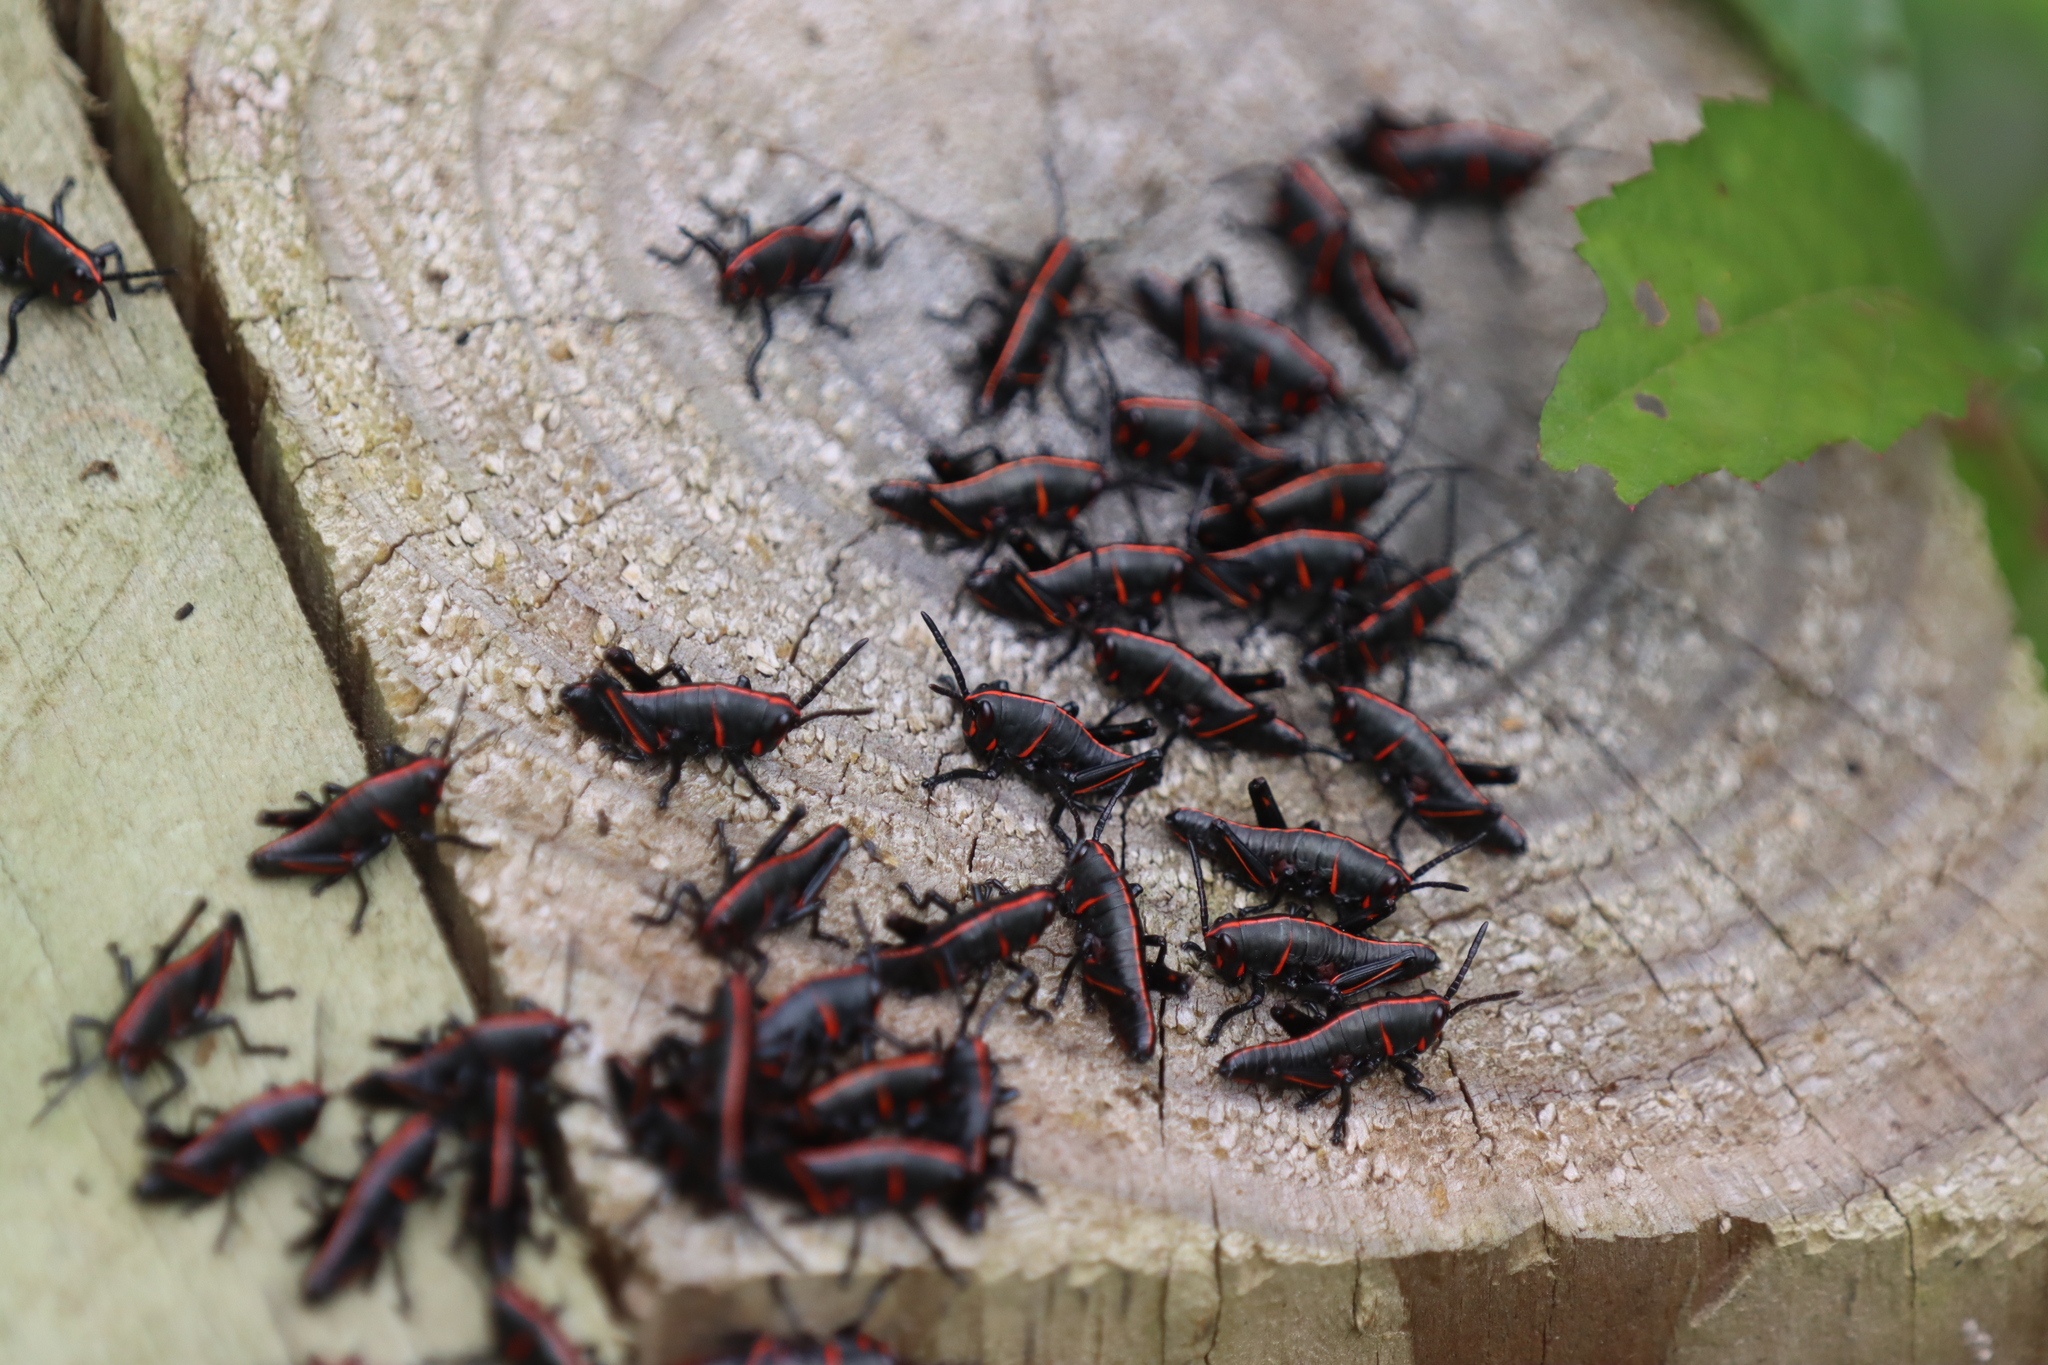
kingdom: Animalia
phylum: Arthropoda
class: Insecta
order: Orthoptera
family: Romaleidae
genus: Romalea
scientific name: Romalea microptera
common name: Eastern lubber grasshopper
